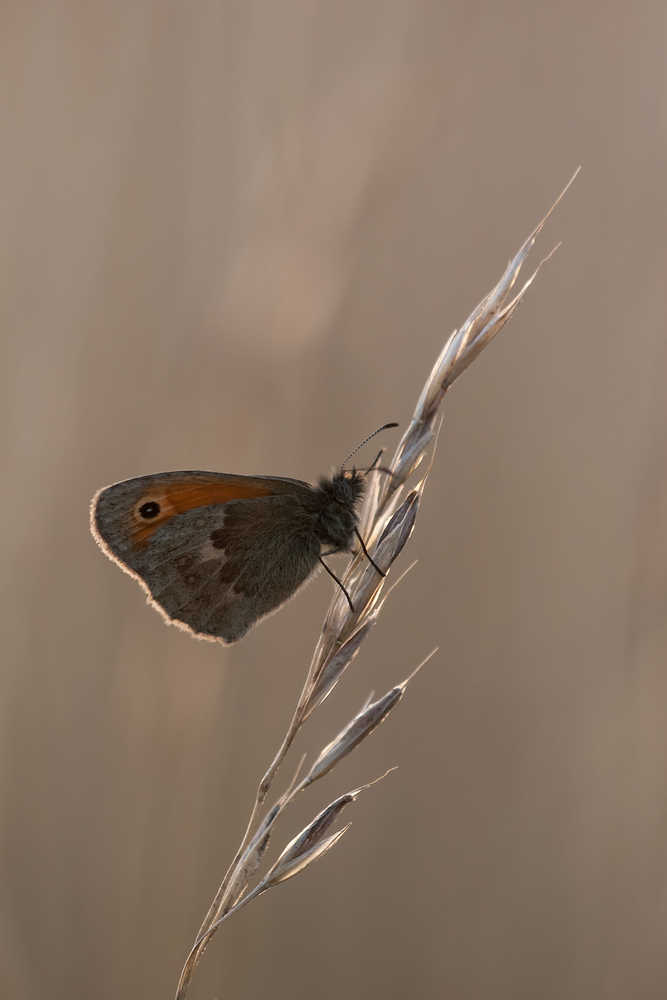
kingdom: Animalia
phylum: Arthropoda
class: Insecta
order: Lepidoptera
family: Nymphalidae
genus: Coenonympha
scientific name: Coenonympha pamphilus
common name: Small heath
